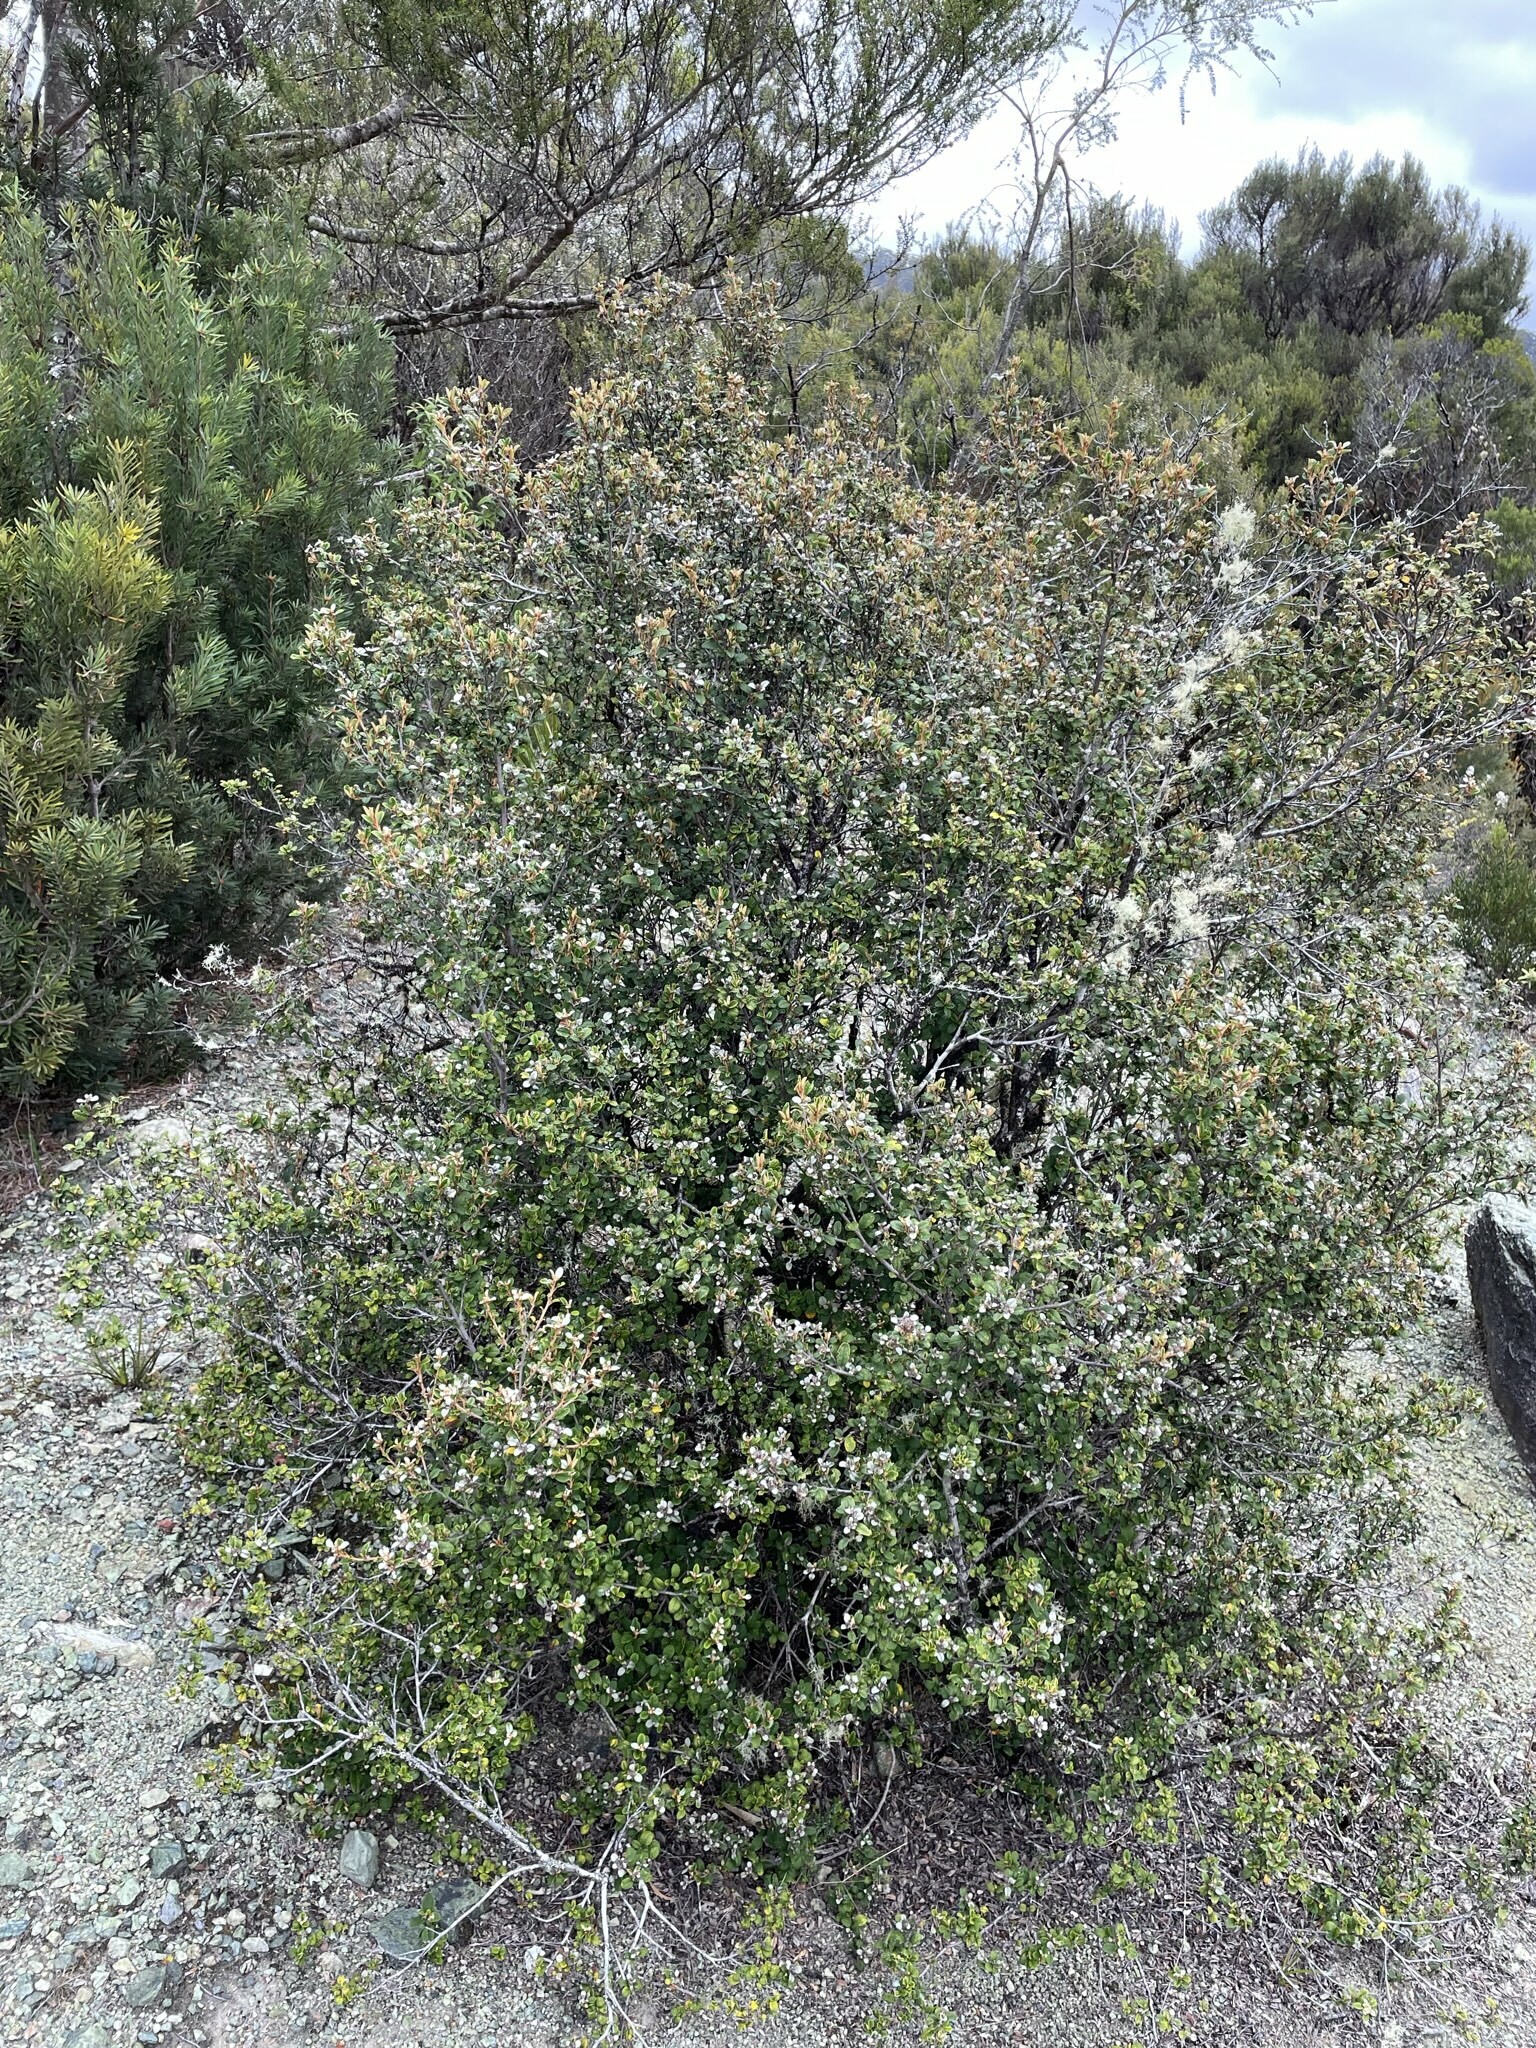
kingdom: Plantae
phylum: Tracheophyta
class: Magnoliopsida
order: Rosales
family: Rhamnaceae
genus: Spyridium
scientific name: Spyridium gunnii
